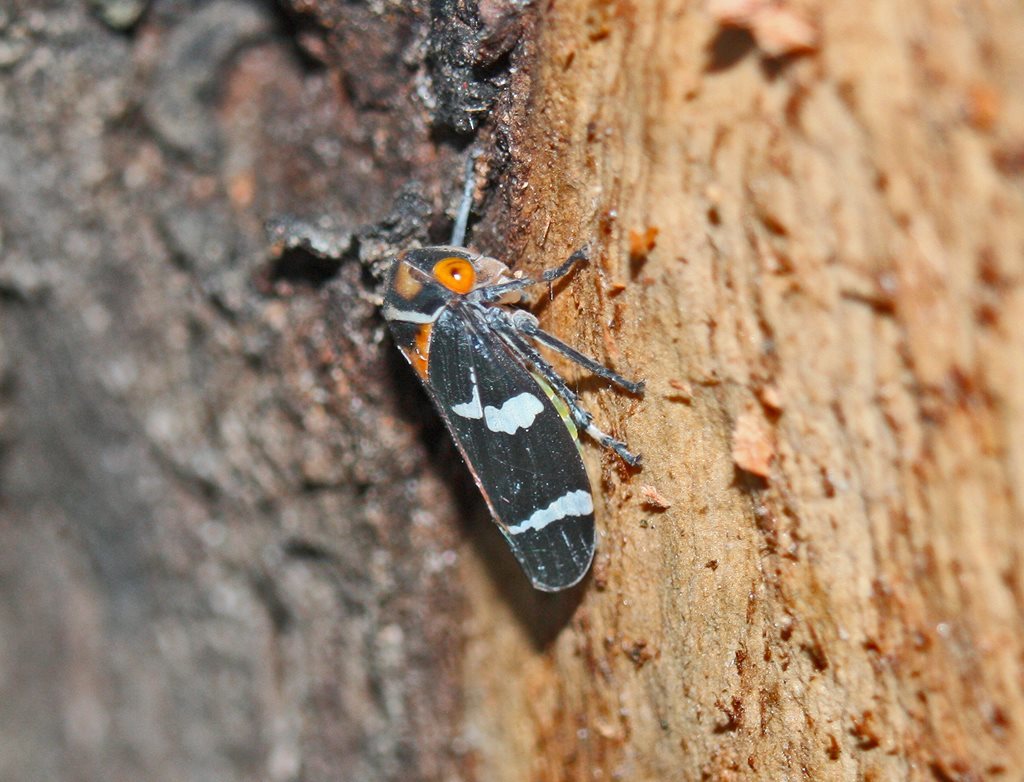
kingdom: Animalia
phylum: Arthropoda
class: Insecta
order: Hemiptera
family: Cicadellidae
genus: Eurymeloides
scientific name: Eurymeloides pulchra
